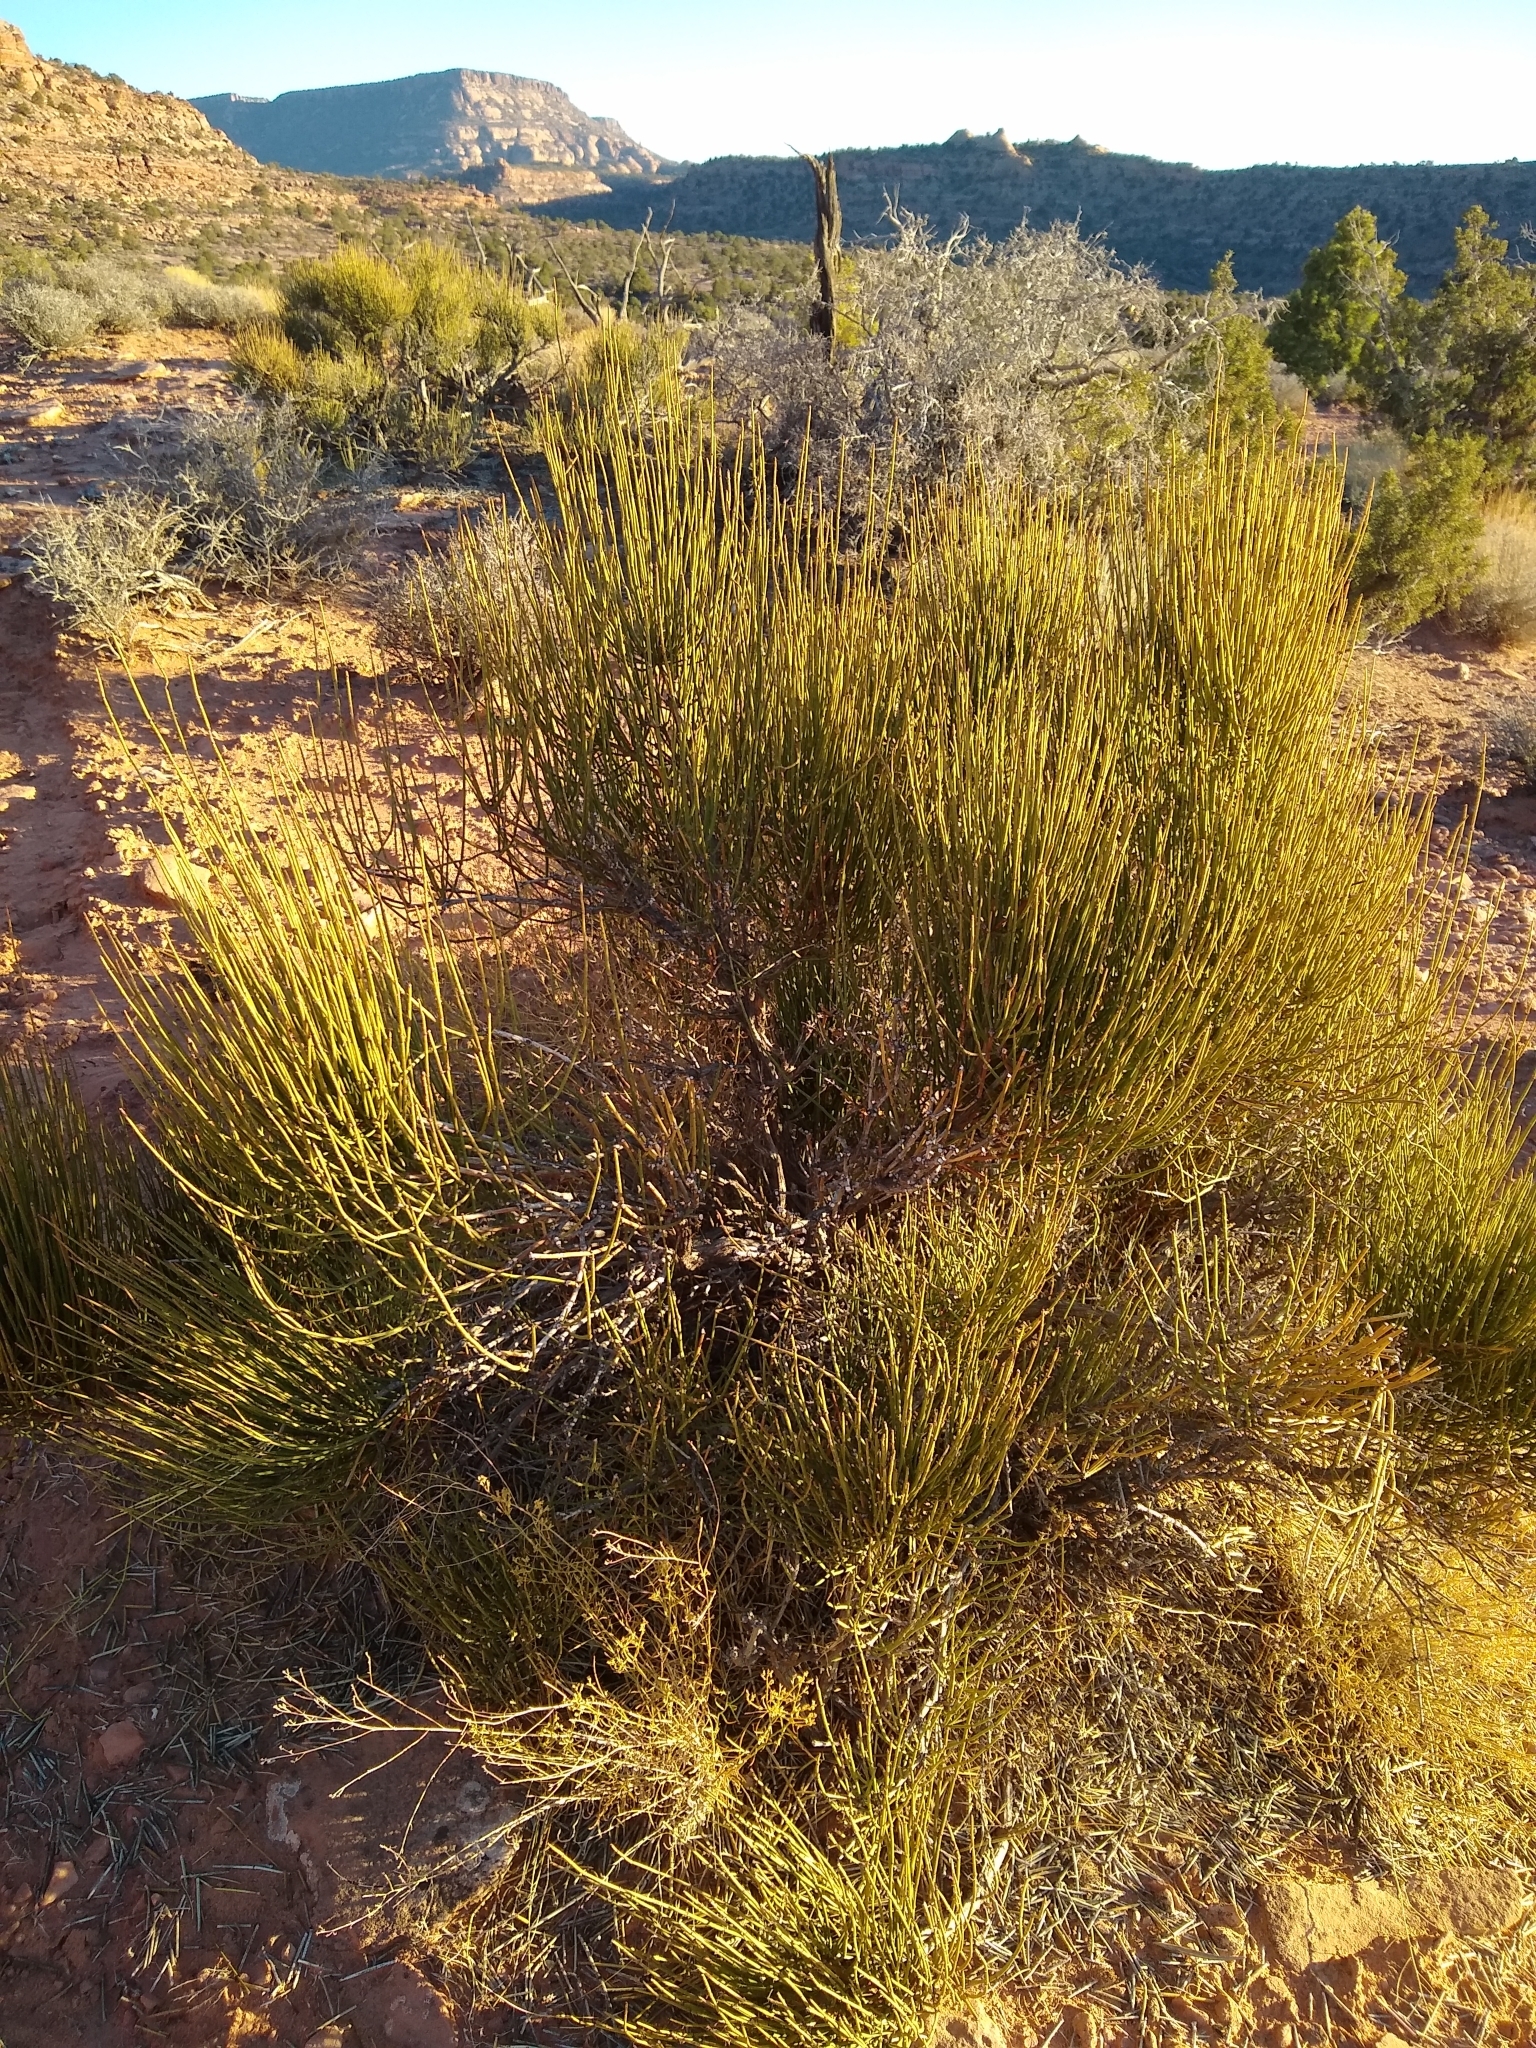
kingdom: Plantae
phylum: Tracheophyta
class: Gnetopsida
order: Ephedrales
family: Ephedraceae
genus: Ephedra
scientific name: Ephedra viridis
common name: Green ephedra
